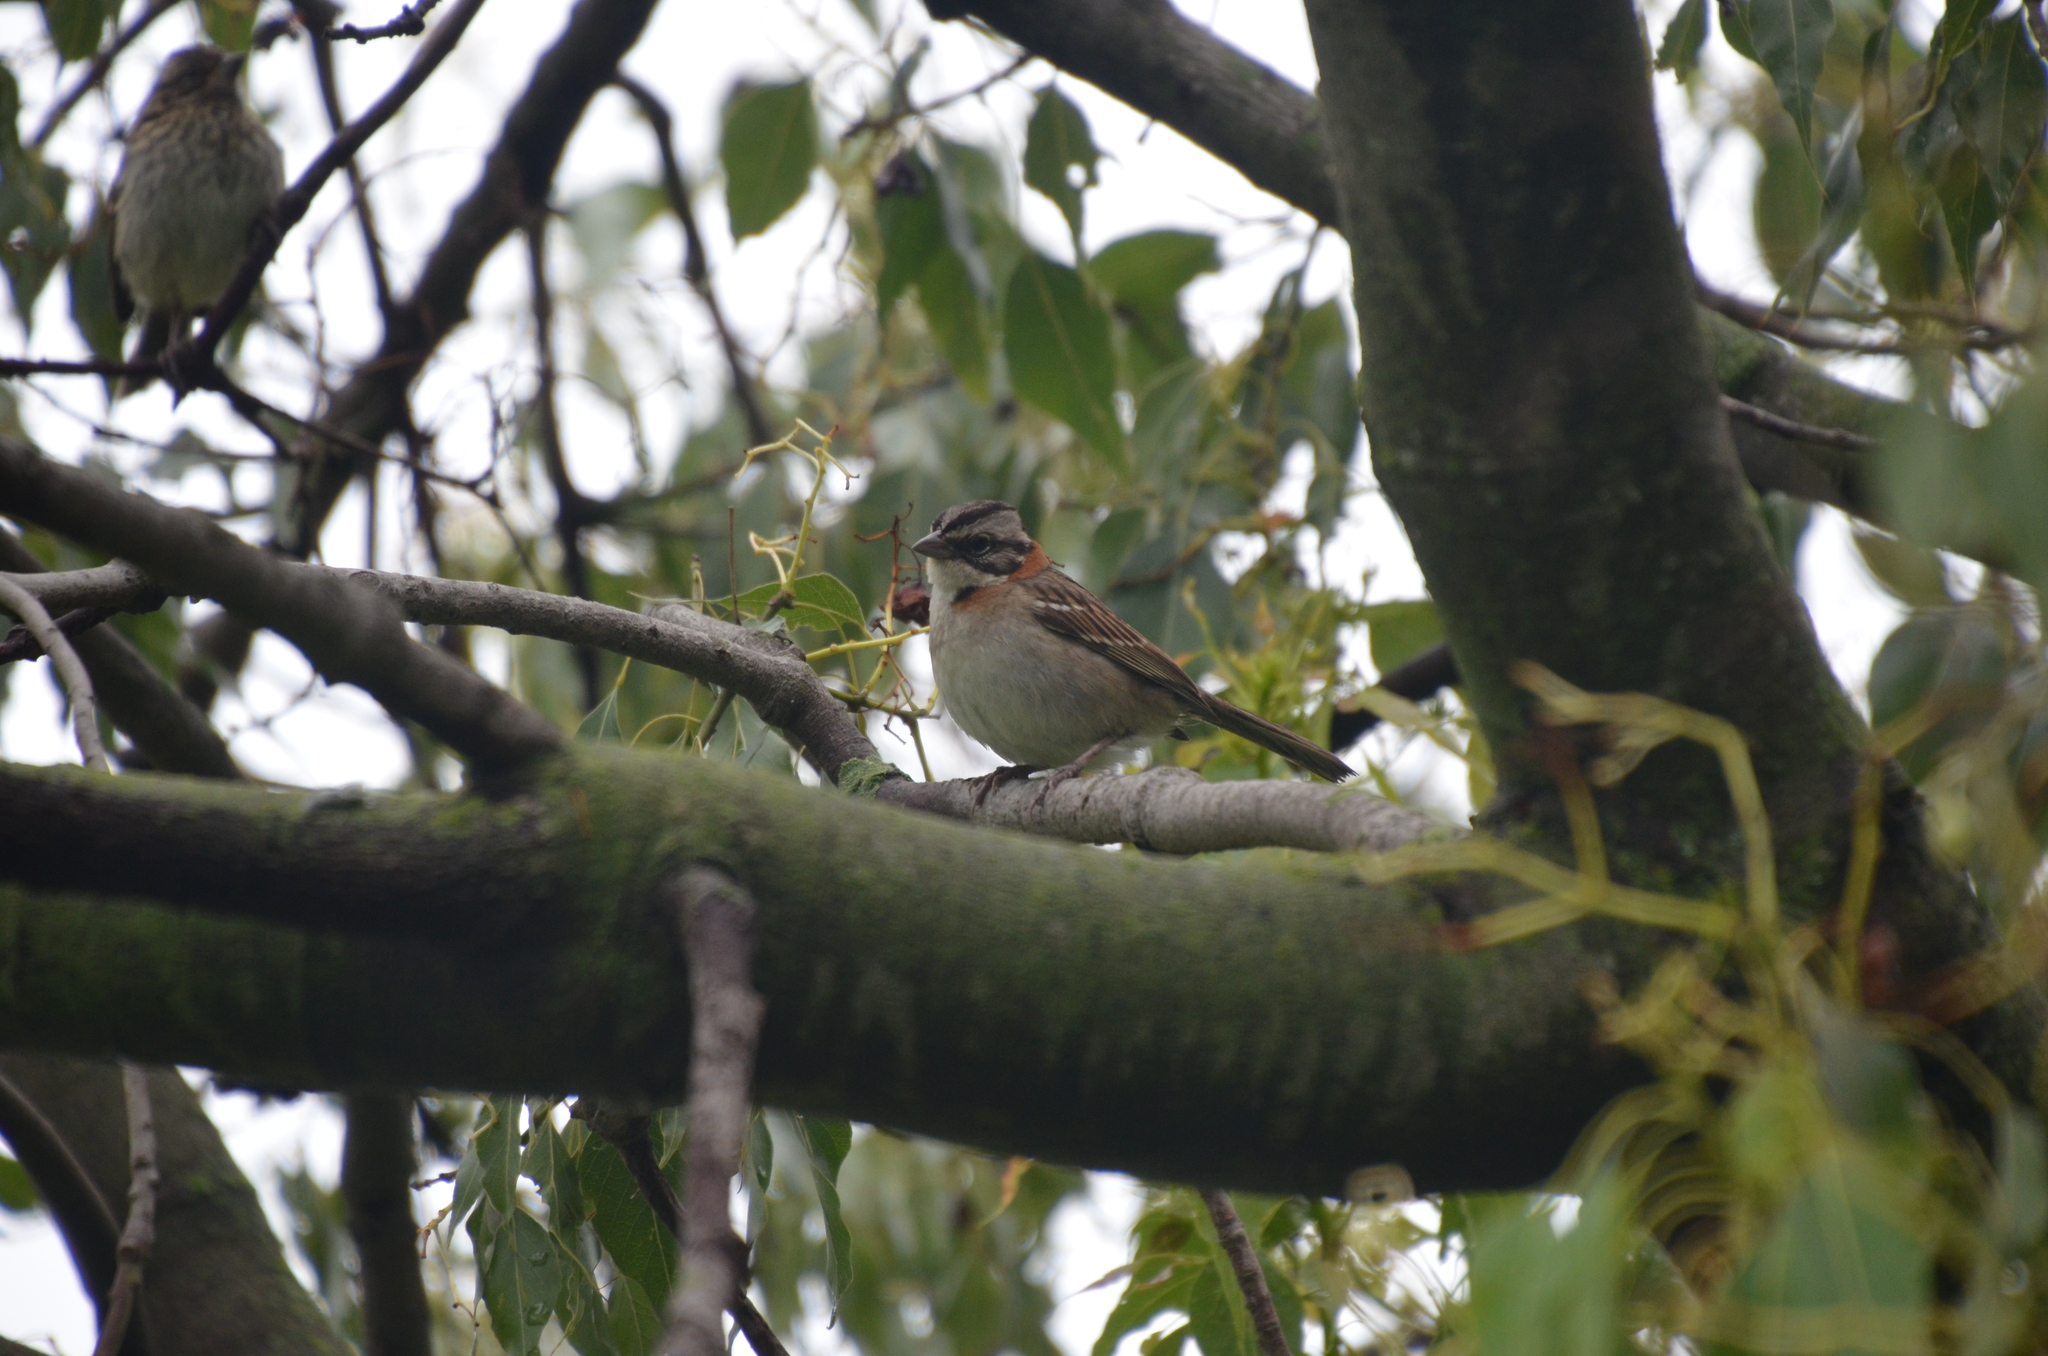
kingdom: Animalia
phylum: Chordata
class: Aves
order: Passeriformes
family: Passerellidae
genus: Zonotrichia
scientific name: Zonotrichia capensis
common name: Rufous-collared sparrow
